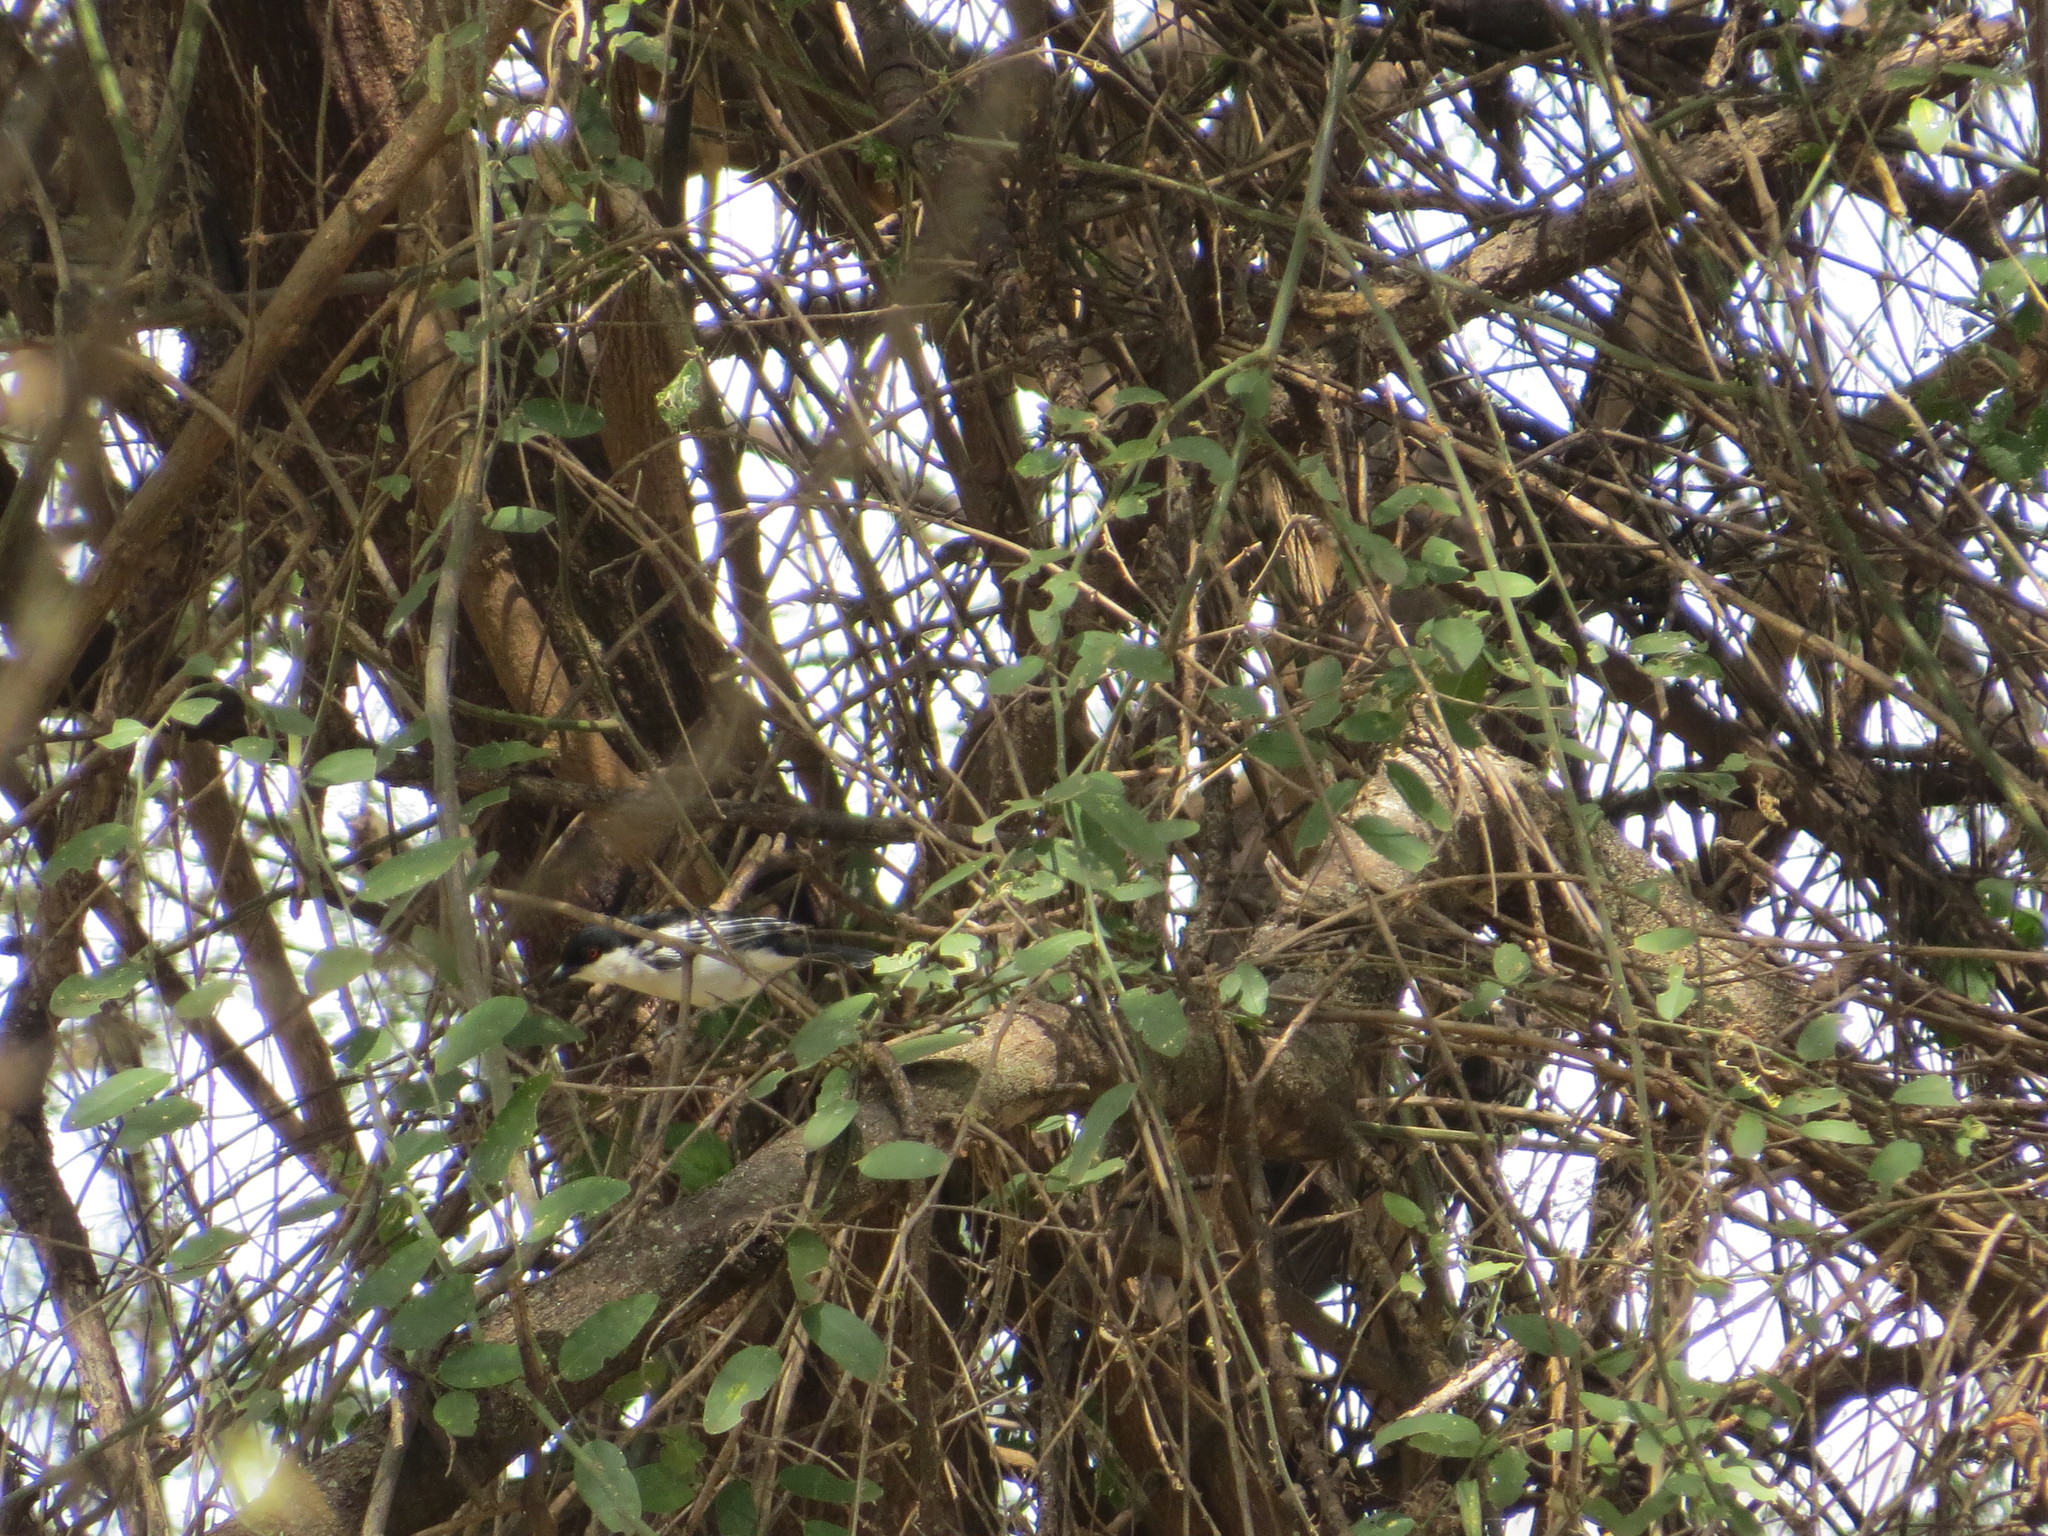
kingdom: Animalia
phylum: Chordata
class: Aves
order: Passeriformes
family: Malaconotidae
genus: Dryoscopus
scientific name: Dryoscopus cubla
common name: Black-backed puffback
